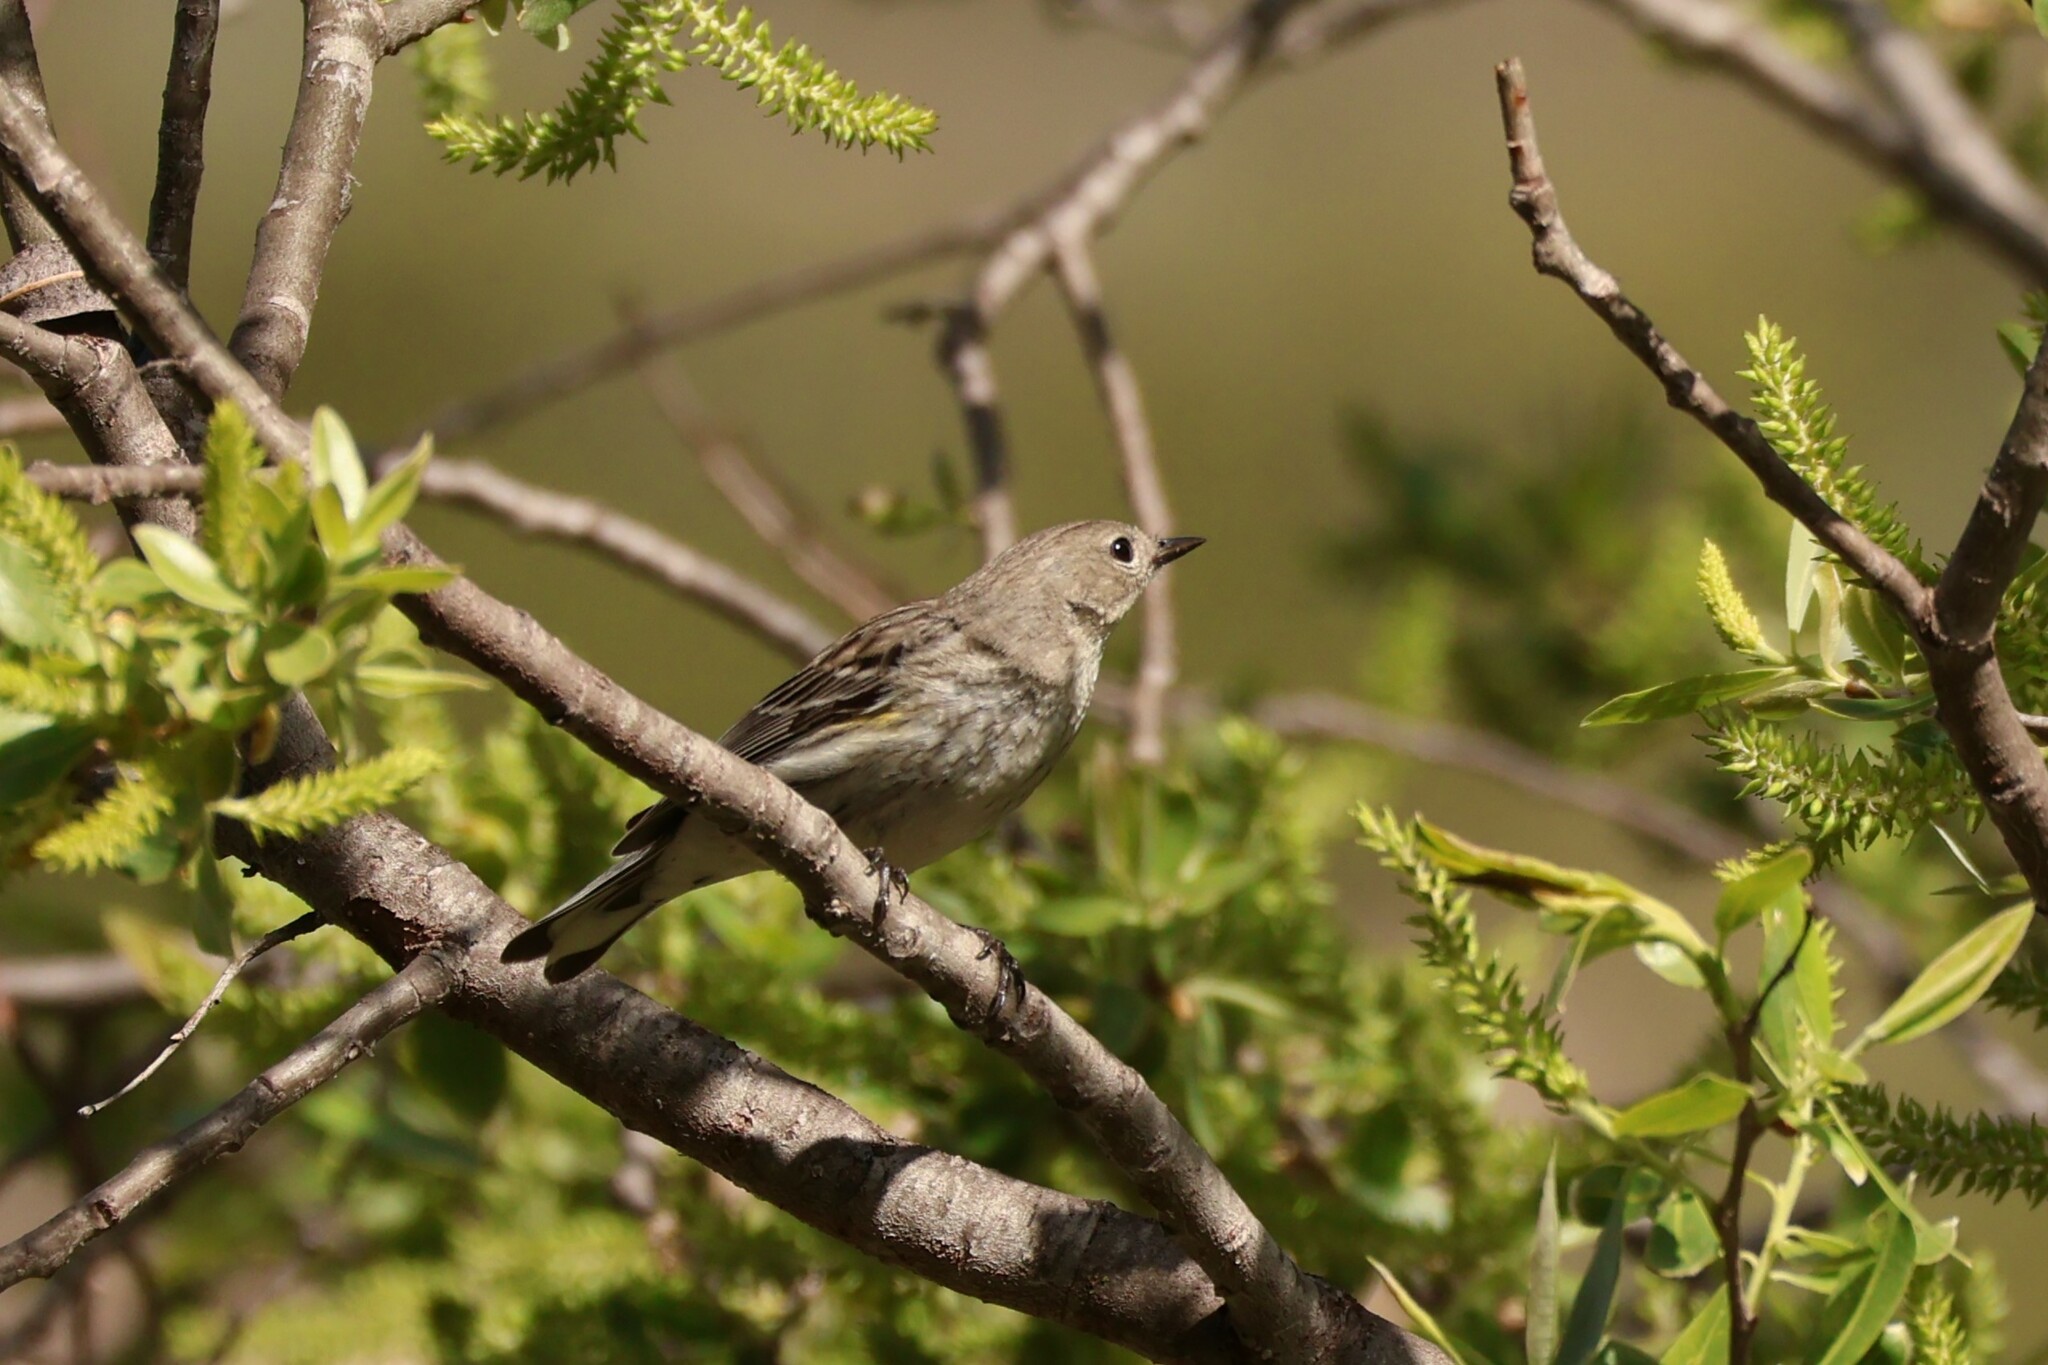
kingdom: Animalia
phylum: Chordata
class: Aves
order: Passeriformes
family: Parulidae
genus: Setophaga
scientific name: Setophaga coronata
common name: Myrtle warbler
